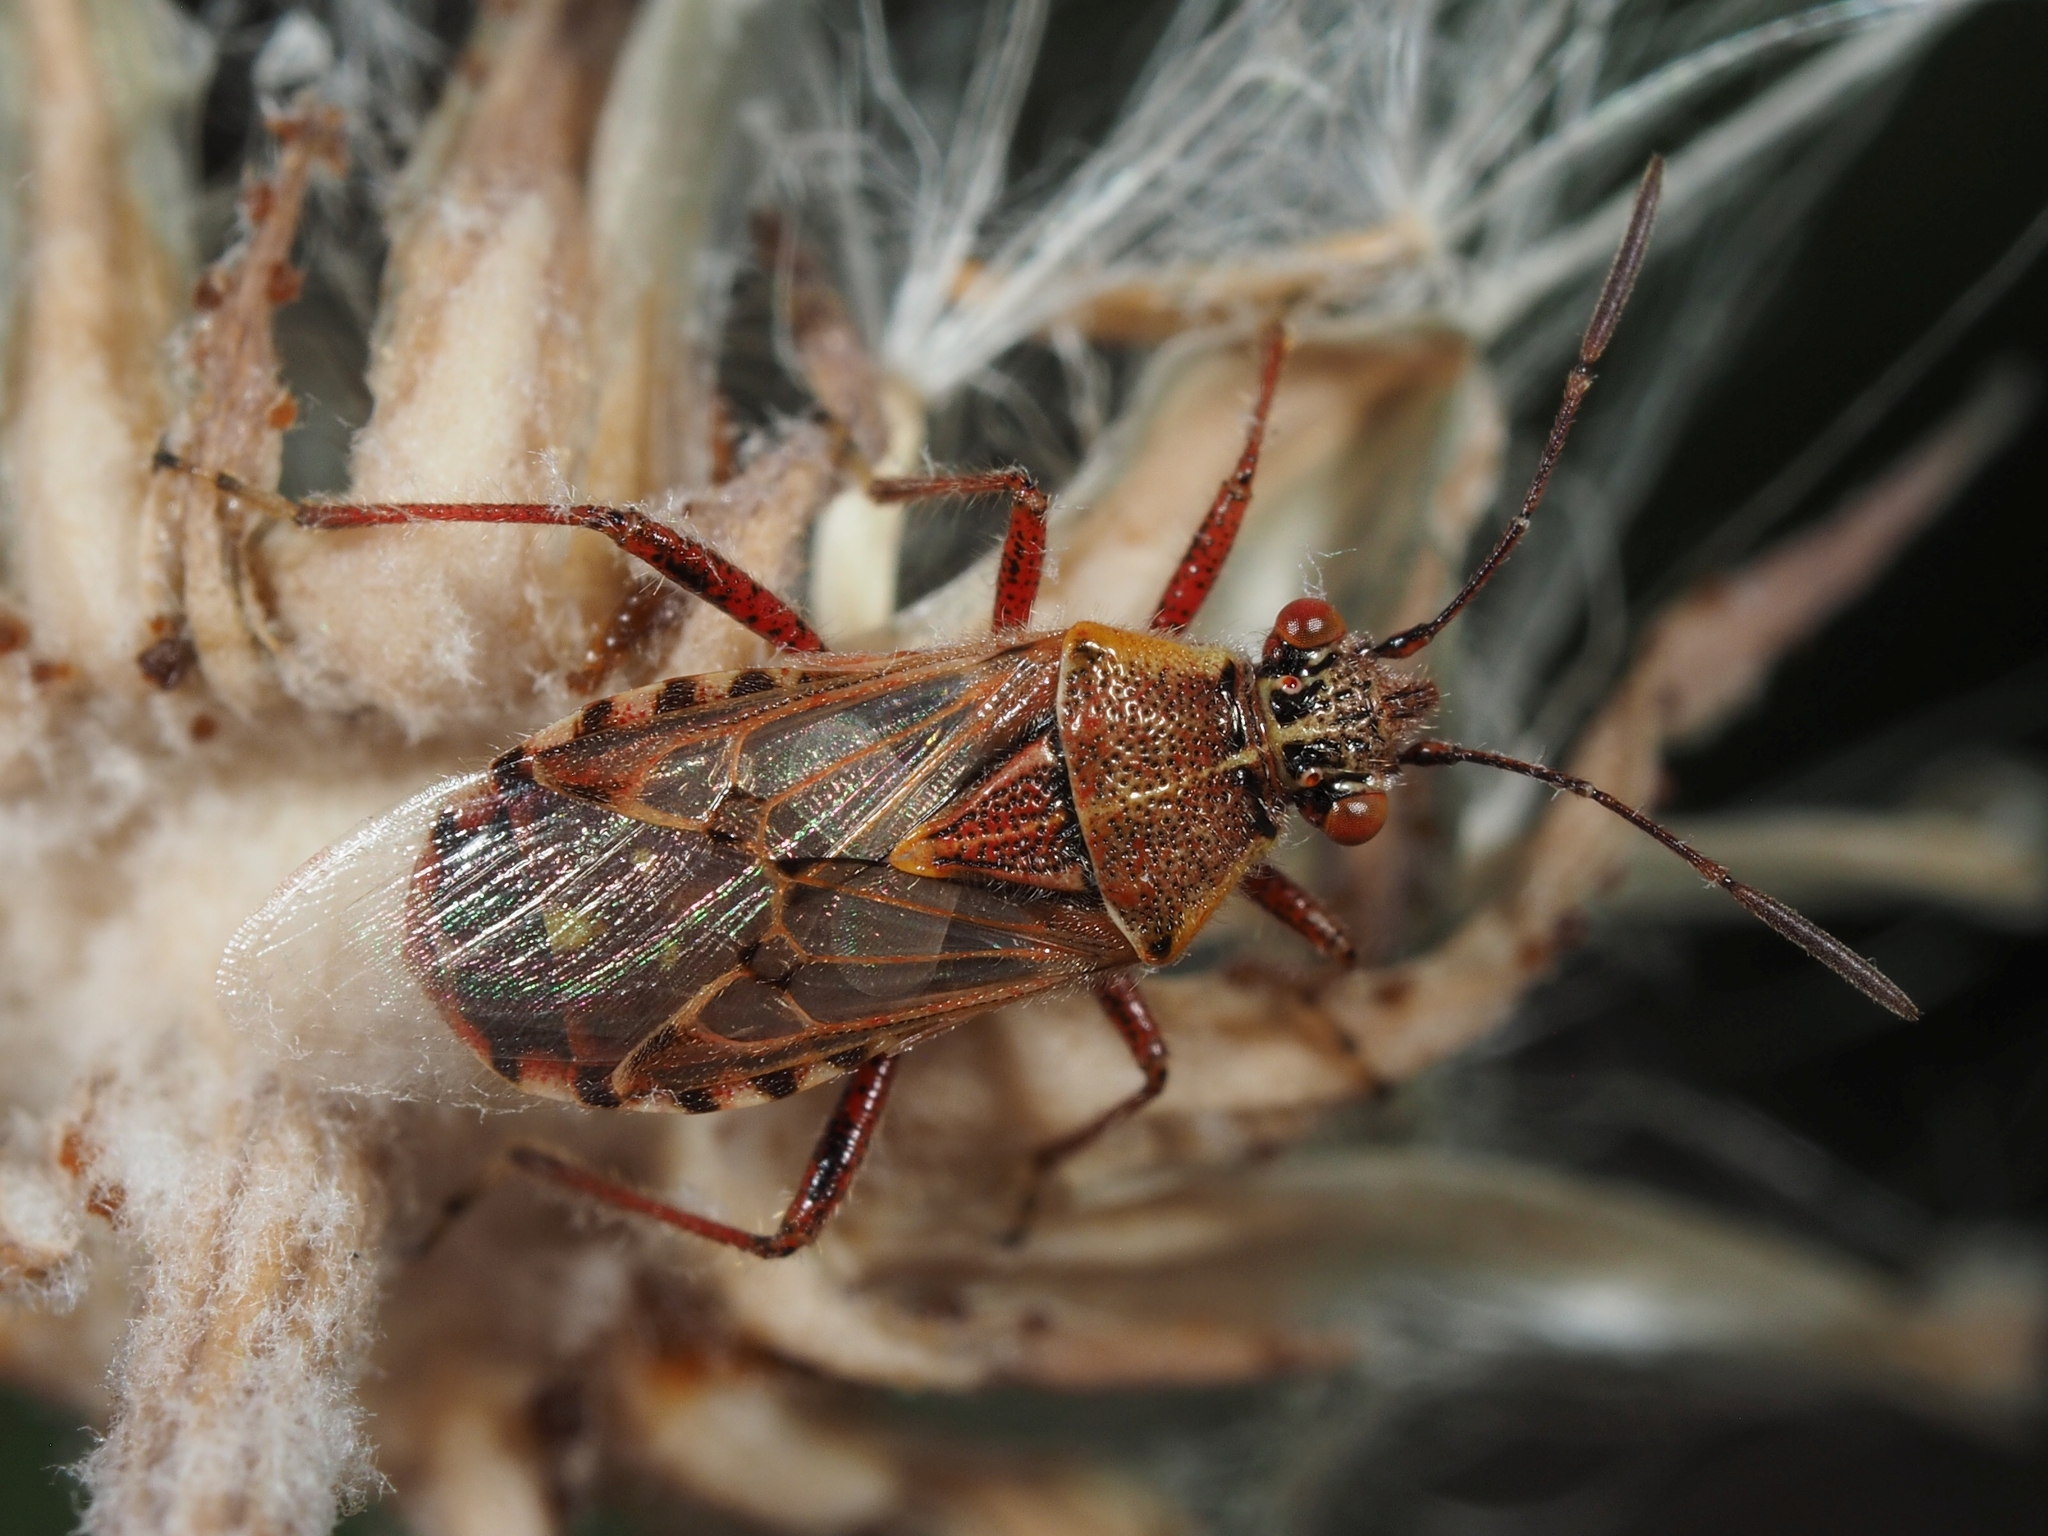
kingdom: Animalia
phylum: Arthropoda
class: Insecta
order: Hemiptera
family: Rhopalidae
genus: Liorhyssus
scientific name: Liorhyssus hyalinus
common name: Scentless plant bug
